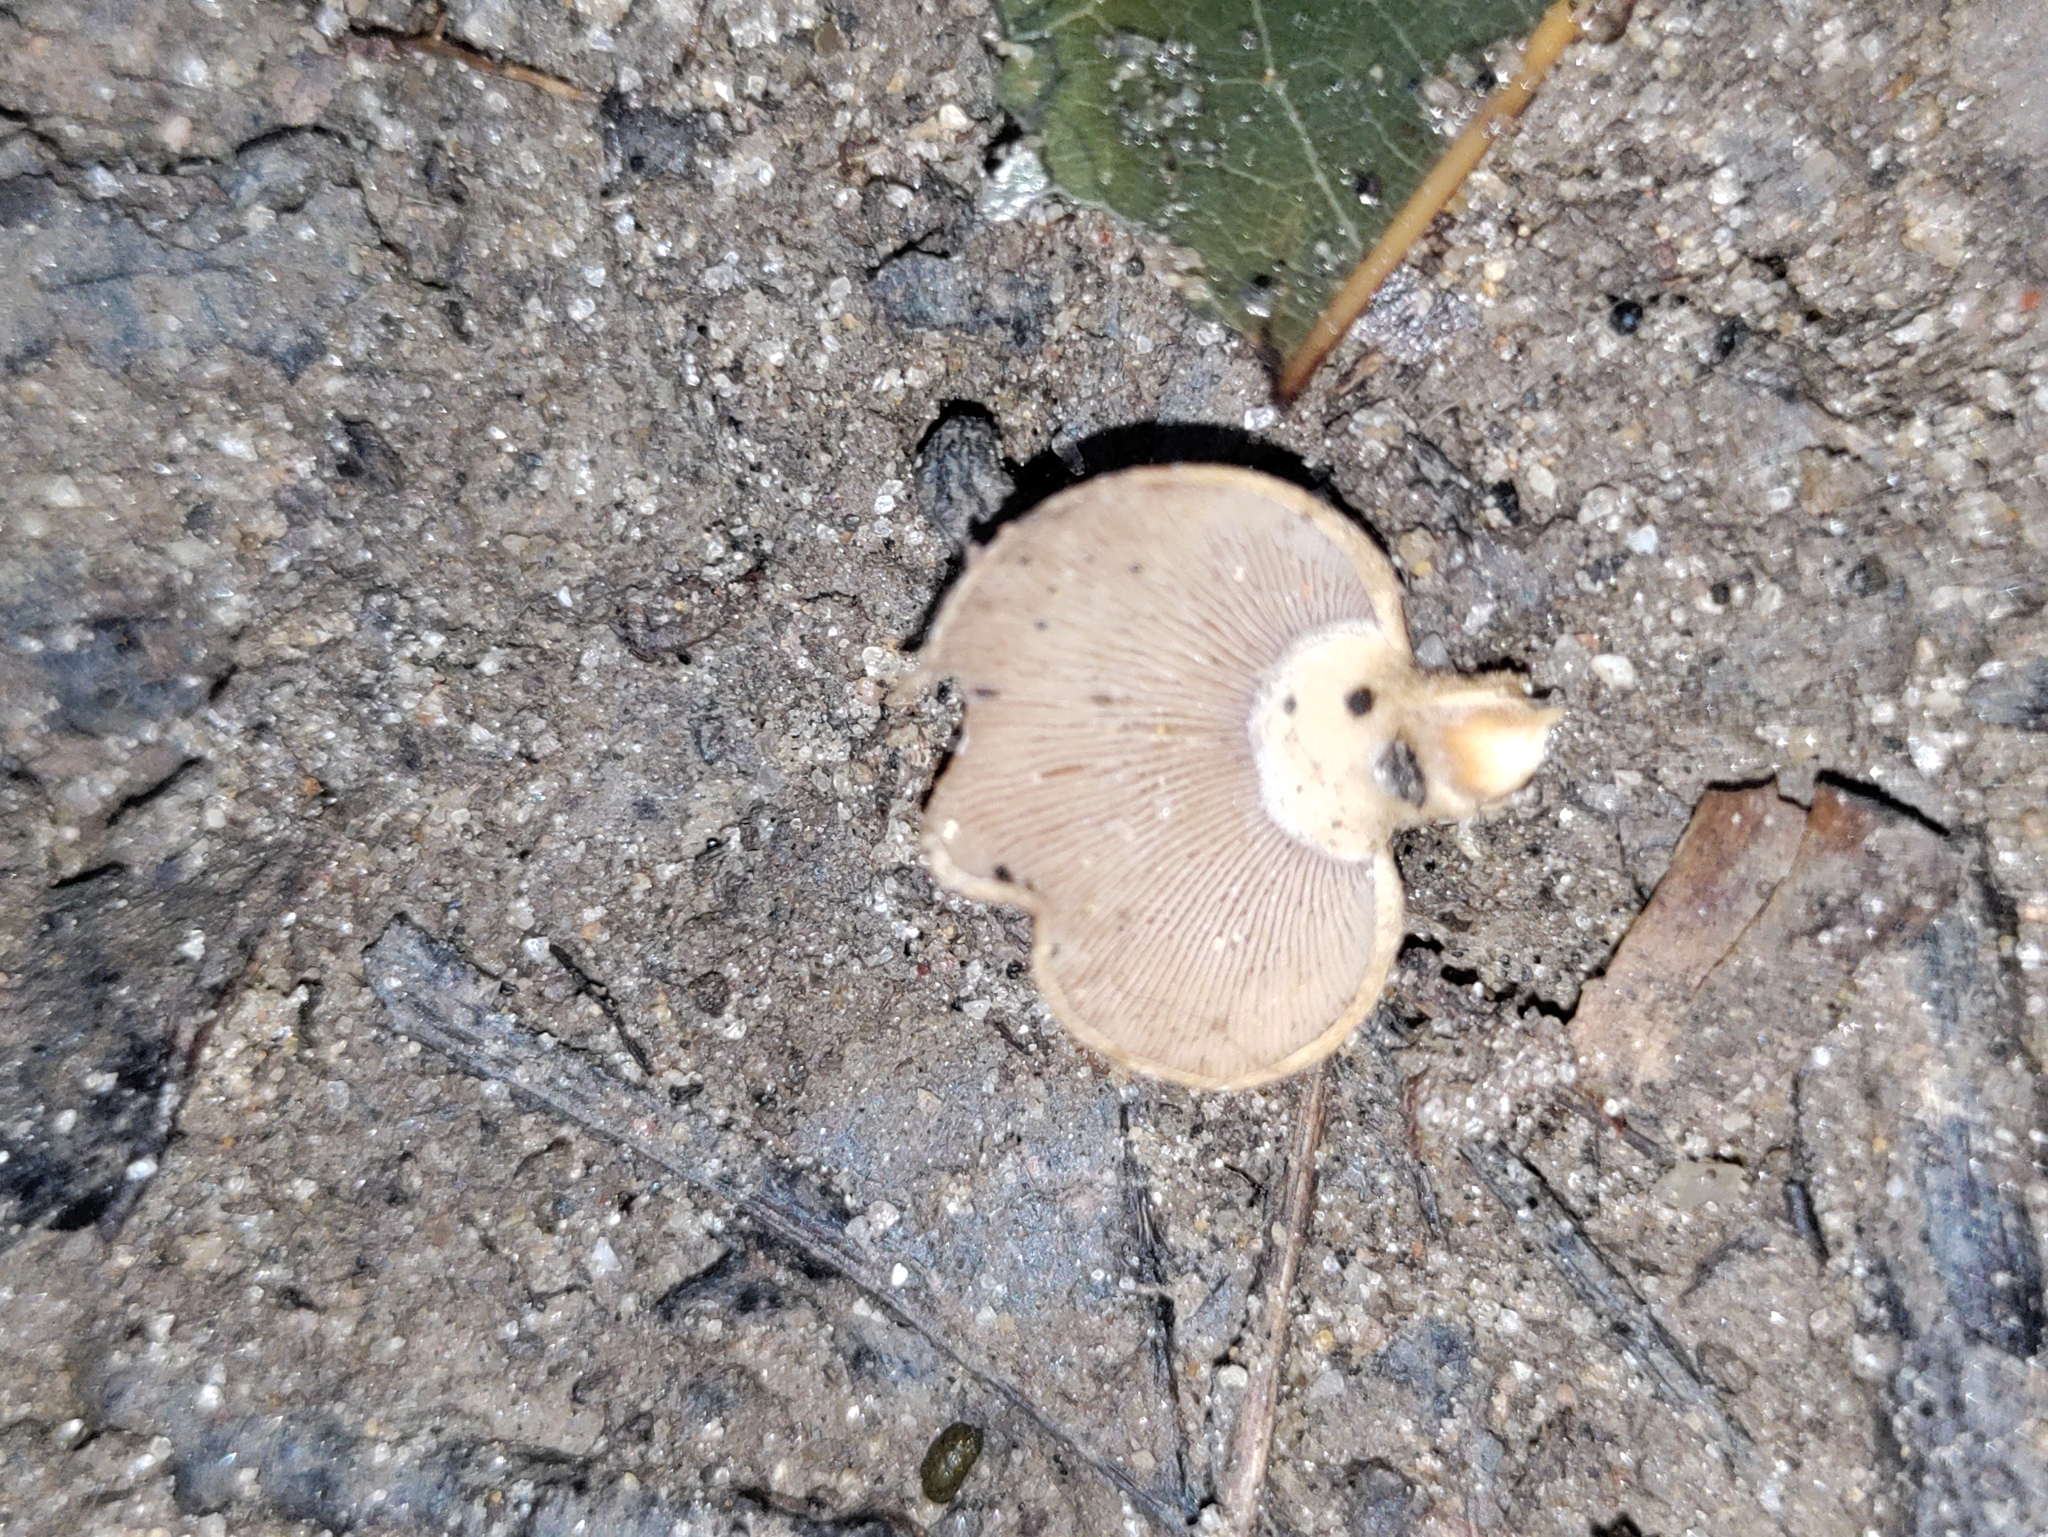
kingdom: Fungi
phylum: Basidiomycota
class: Agaricomycetes
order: Agaricales
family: Mycenaceae
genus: Panellus
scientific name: Panellus stipticus
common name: Bitter oysterling
